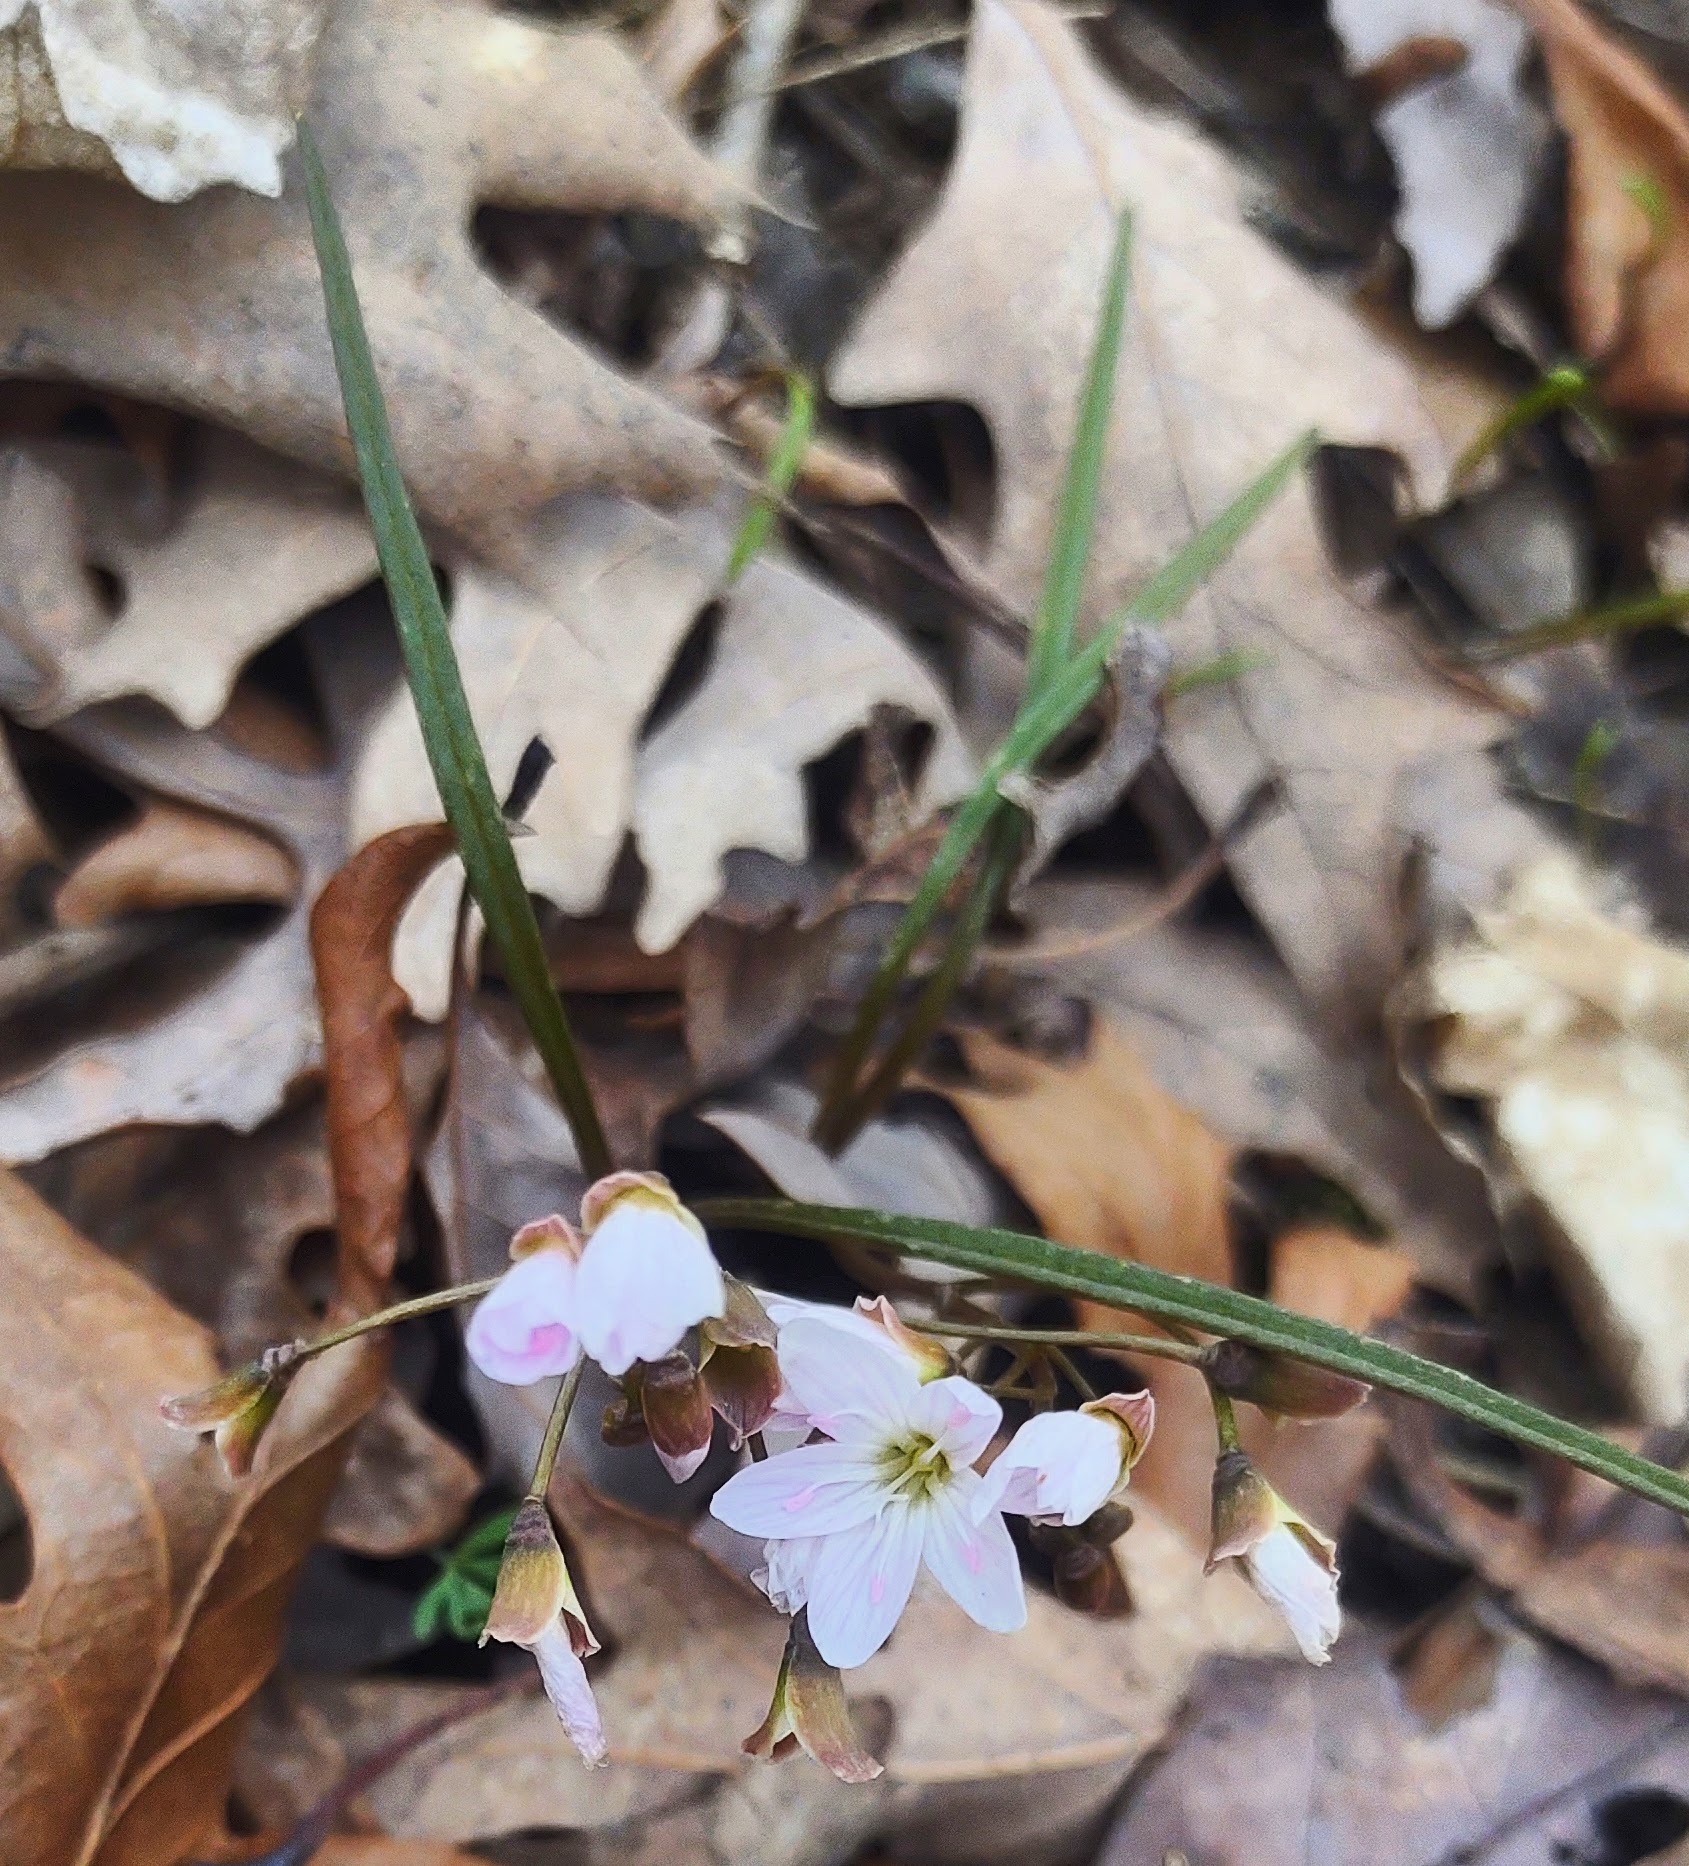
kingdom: Plantae
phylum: Tracheophyta
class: Magnoliopsida
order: Caryophyllales
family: Montiaceae
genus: Claytonia
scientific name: Claytonia virginica
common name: Virginia springbeauty
